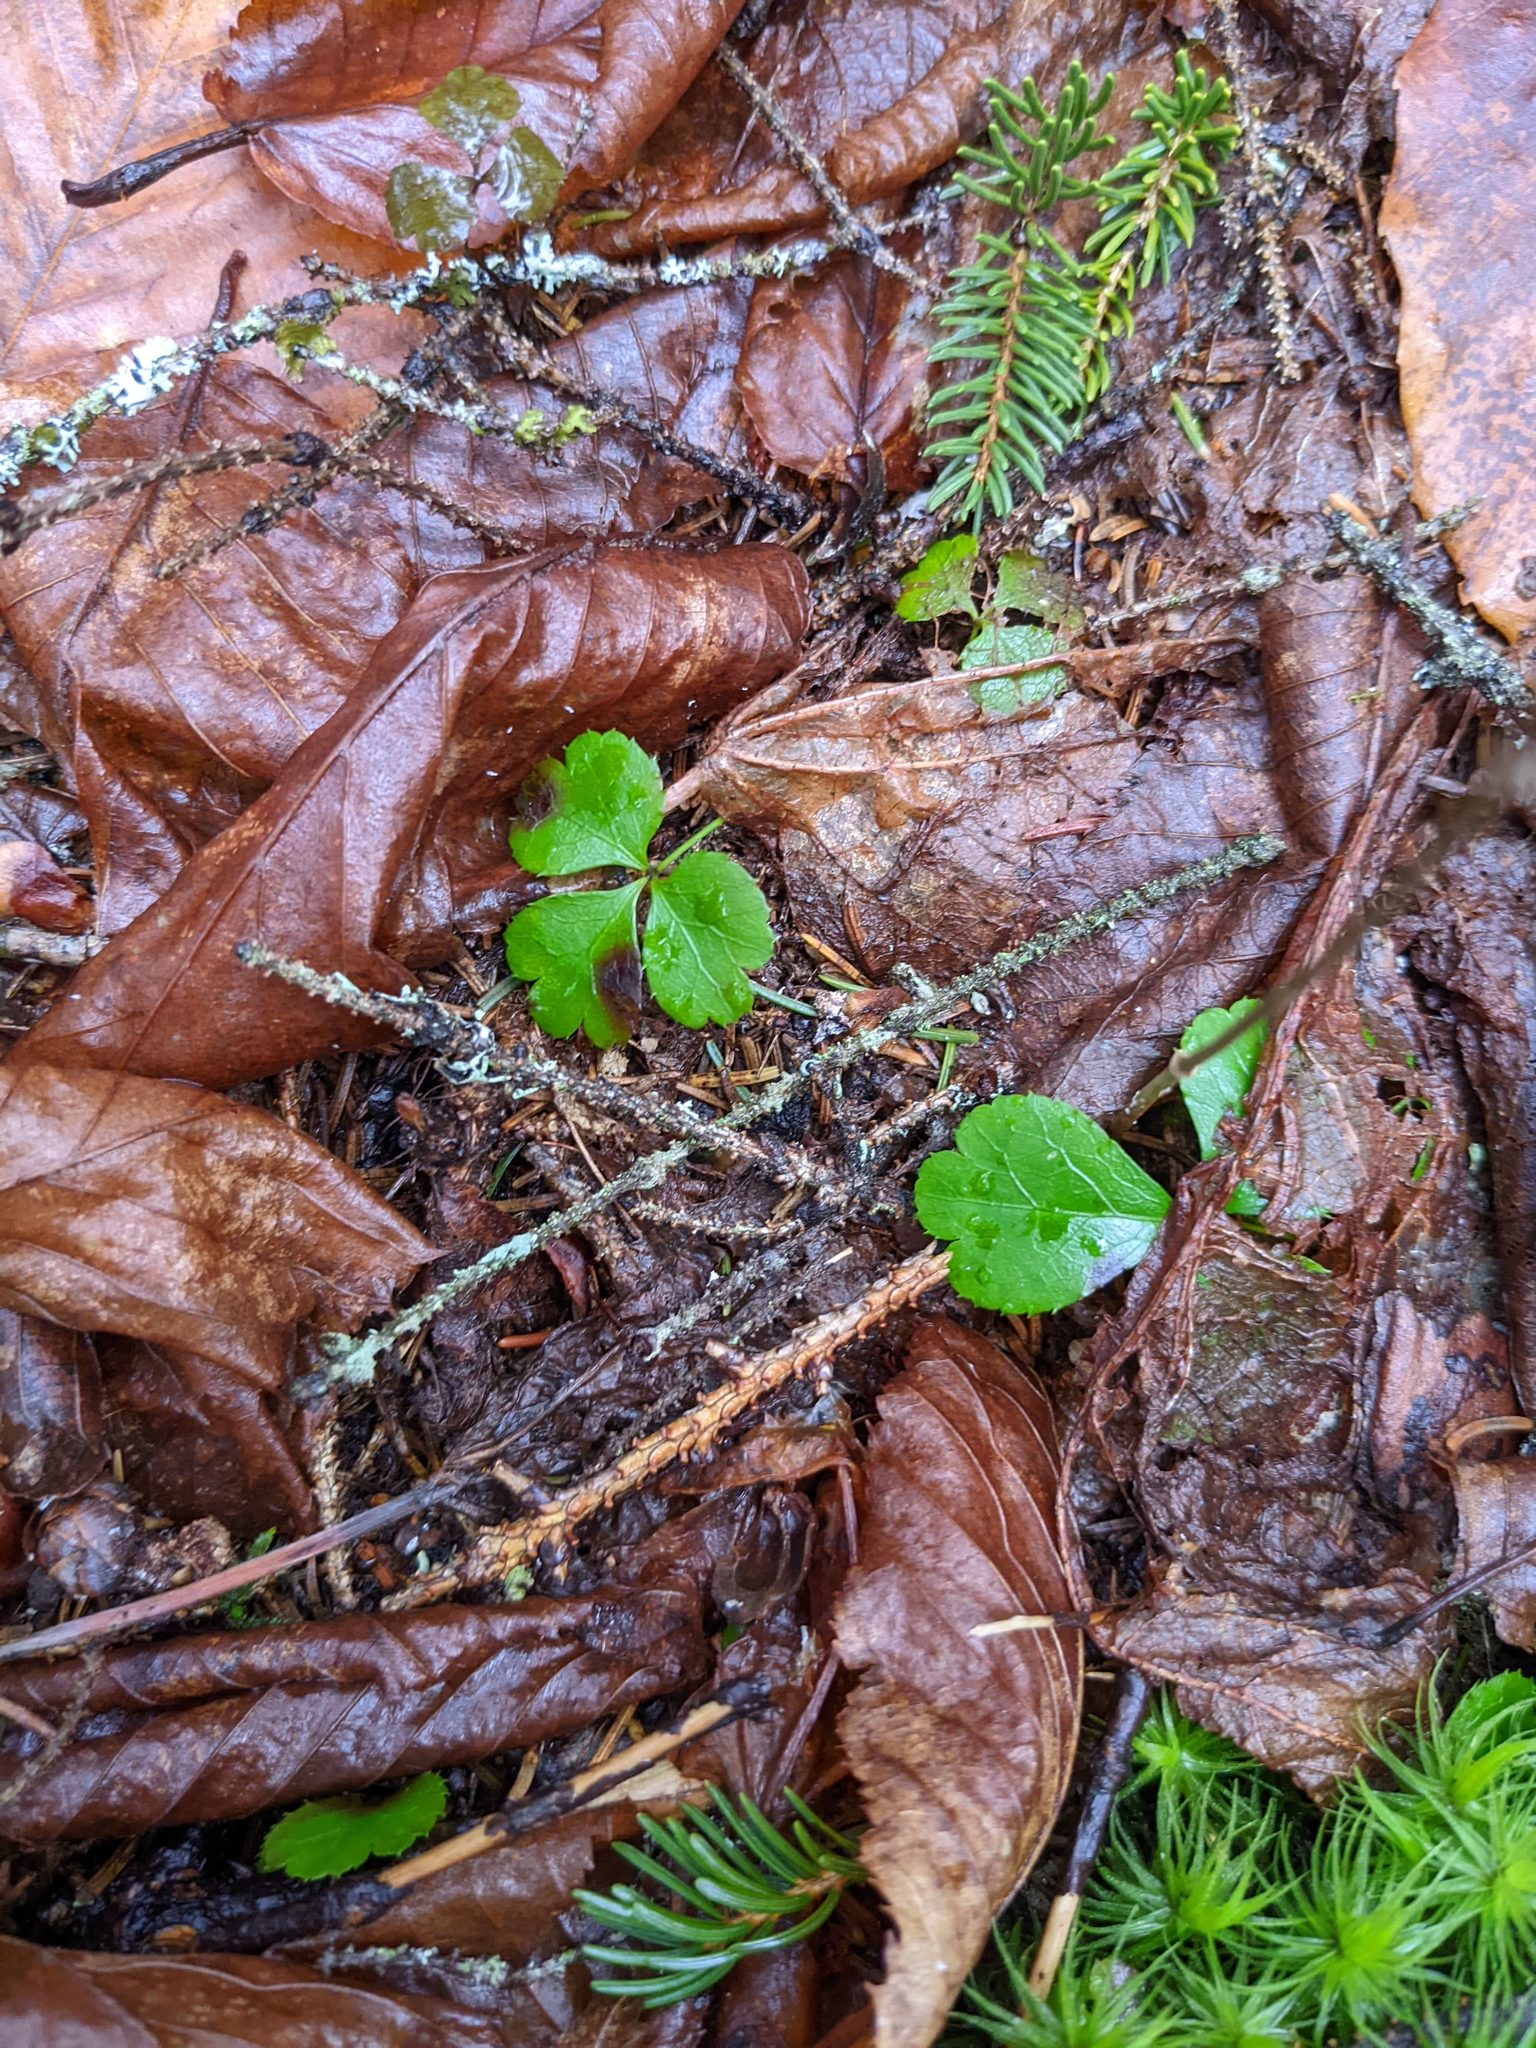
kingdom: Plantae
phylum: Tracheophyta
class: Magnoliopsida
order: Ranunculales
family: Ranunculaceae
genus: Coptis
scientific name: Coptis trifolia
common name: Canker-root
